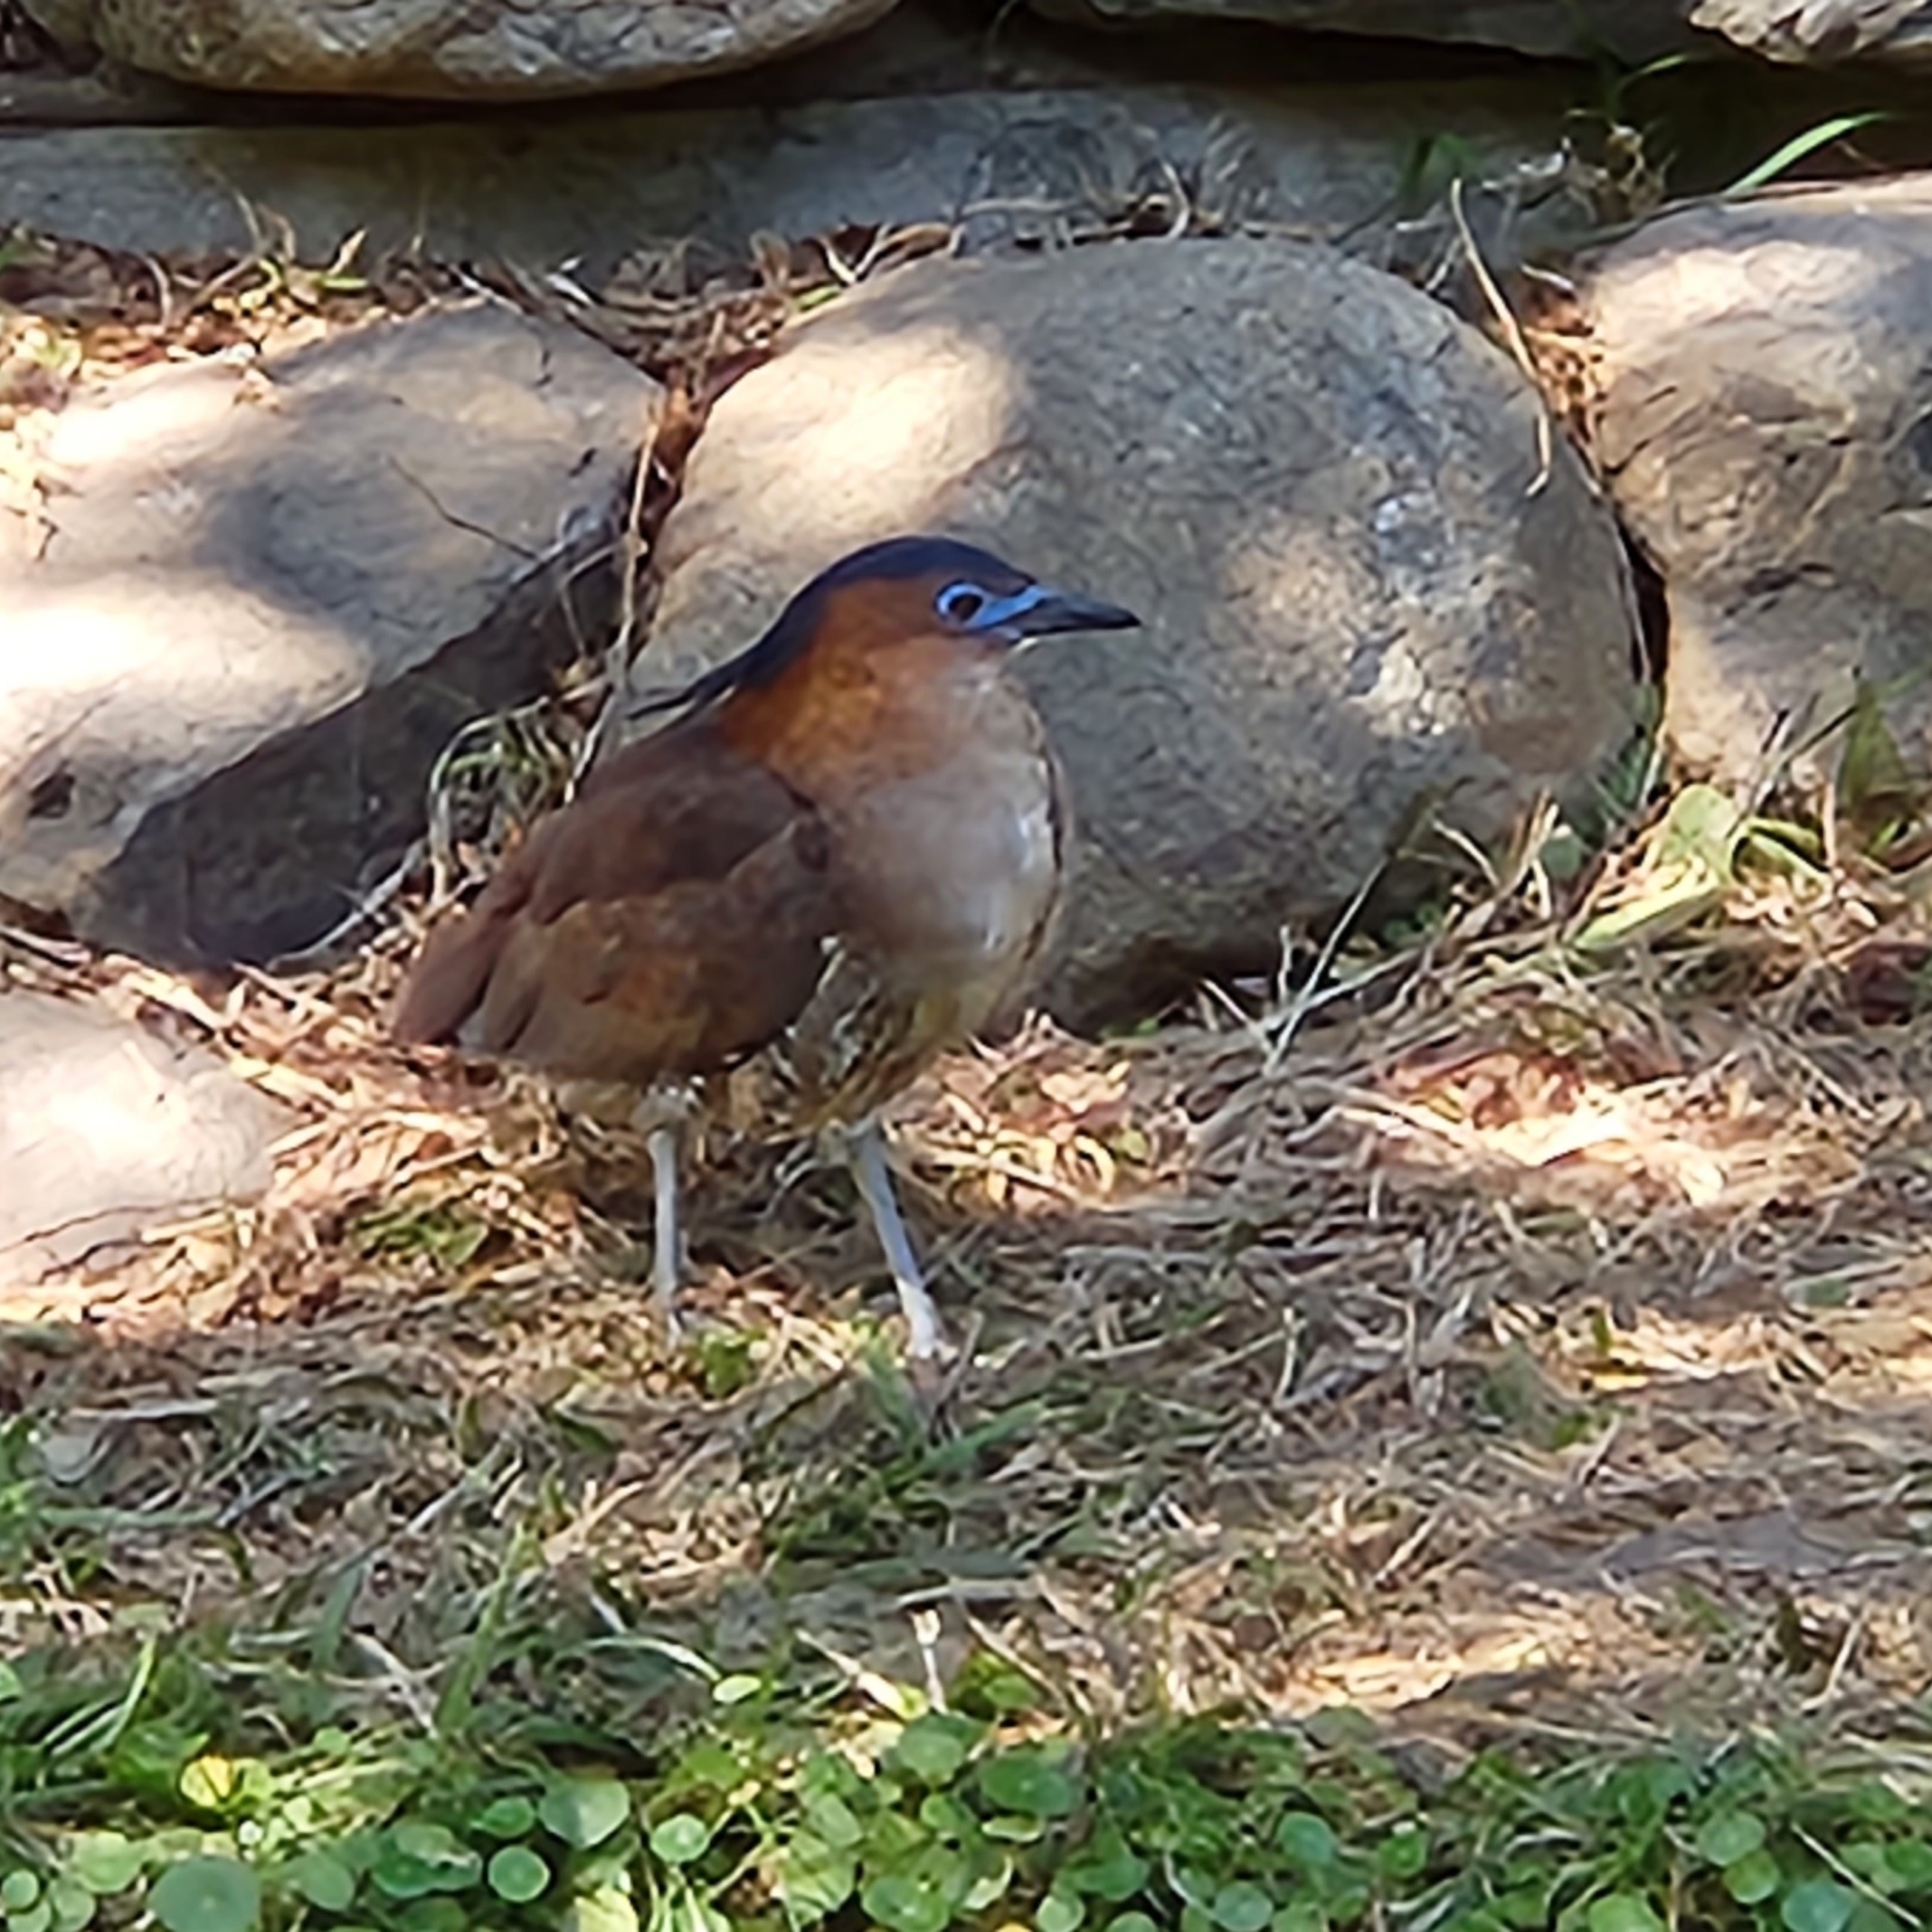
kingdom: Animalia
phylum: Chordata
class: Aves
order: Pelecaniformes
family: Ardeidae
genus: Gorsachius
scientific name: Gorsachius melanolophus
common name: Malayan night heron
